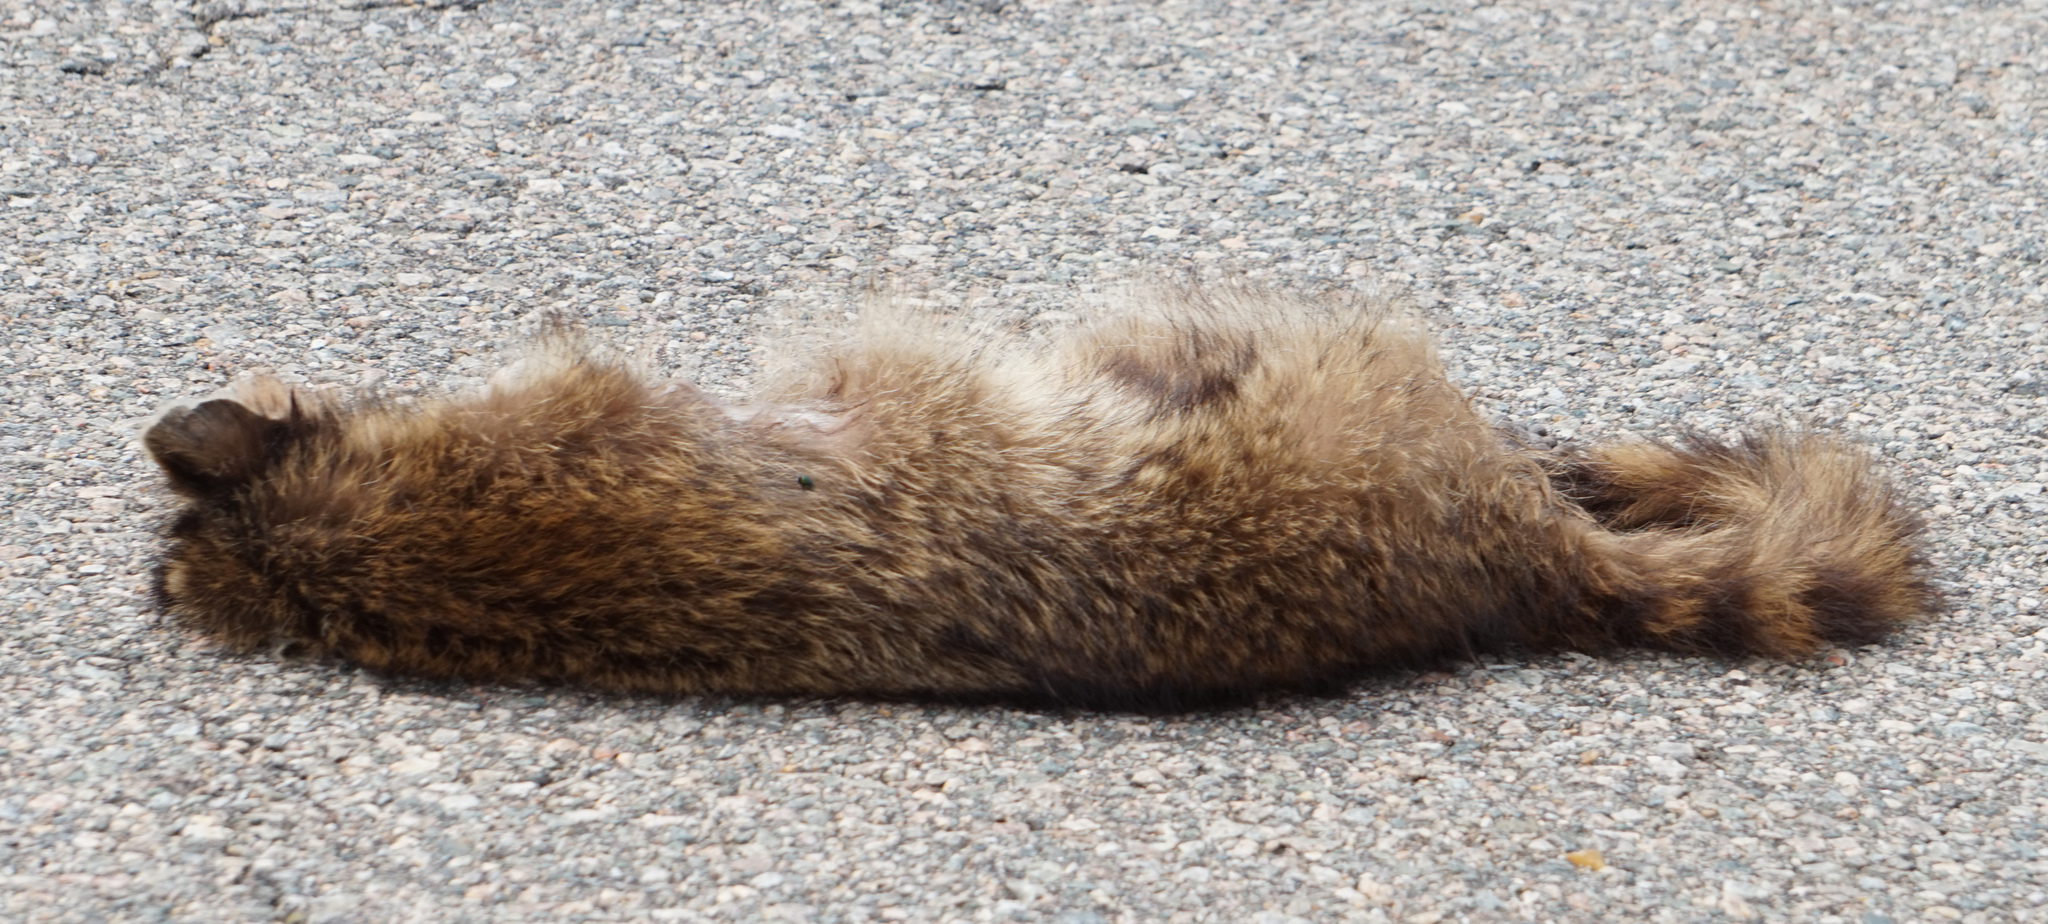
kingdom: Animalia
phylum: Chordata
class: Mammalia
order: Carnivora
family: Procyonidae
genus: Procyon
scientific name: Procyon lotor
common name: Raccoon
